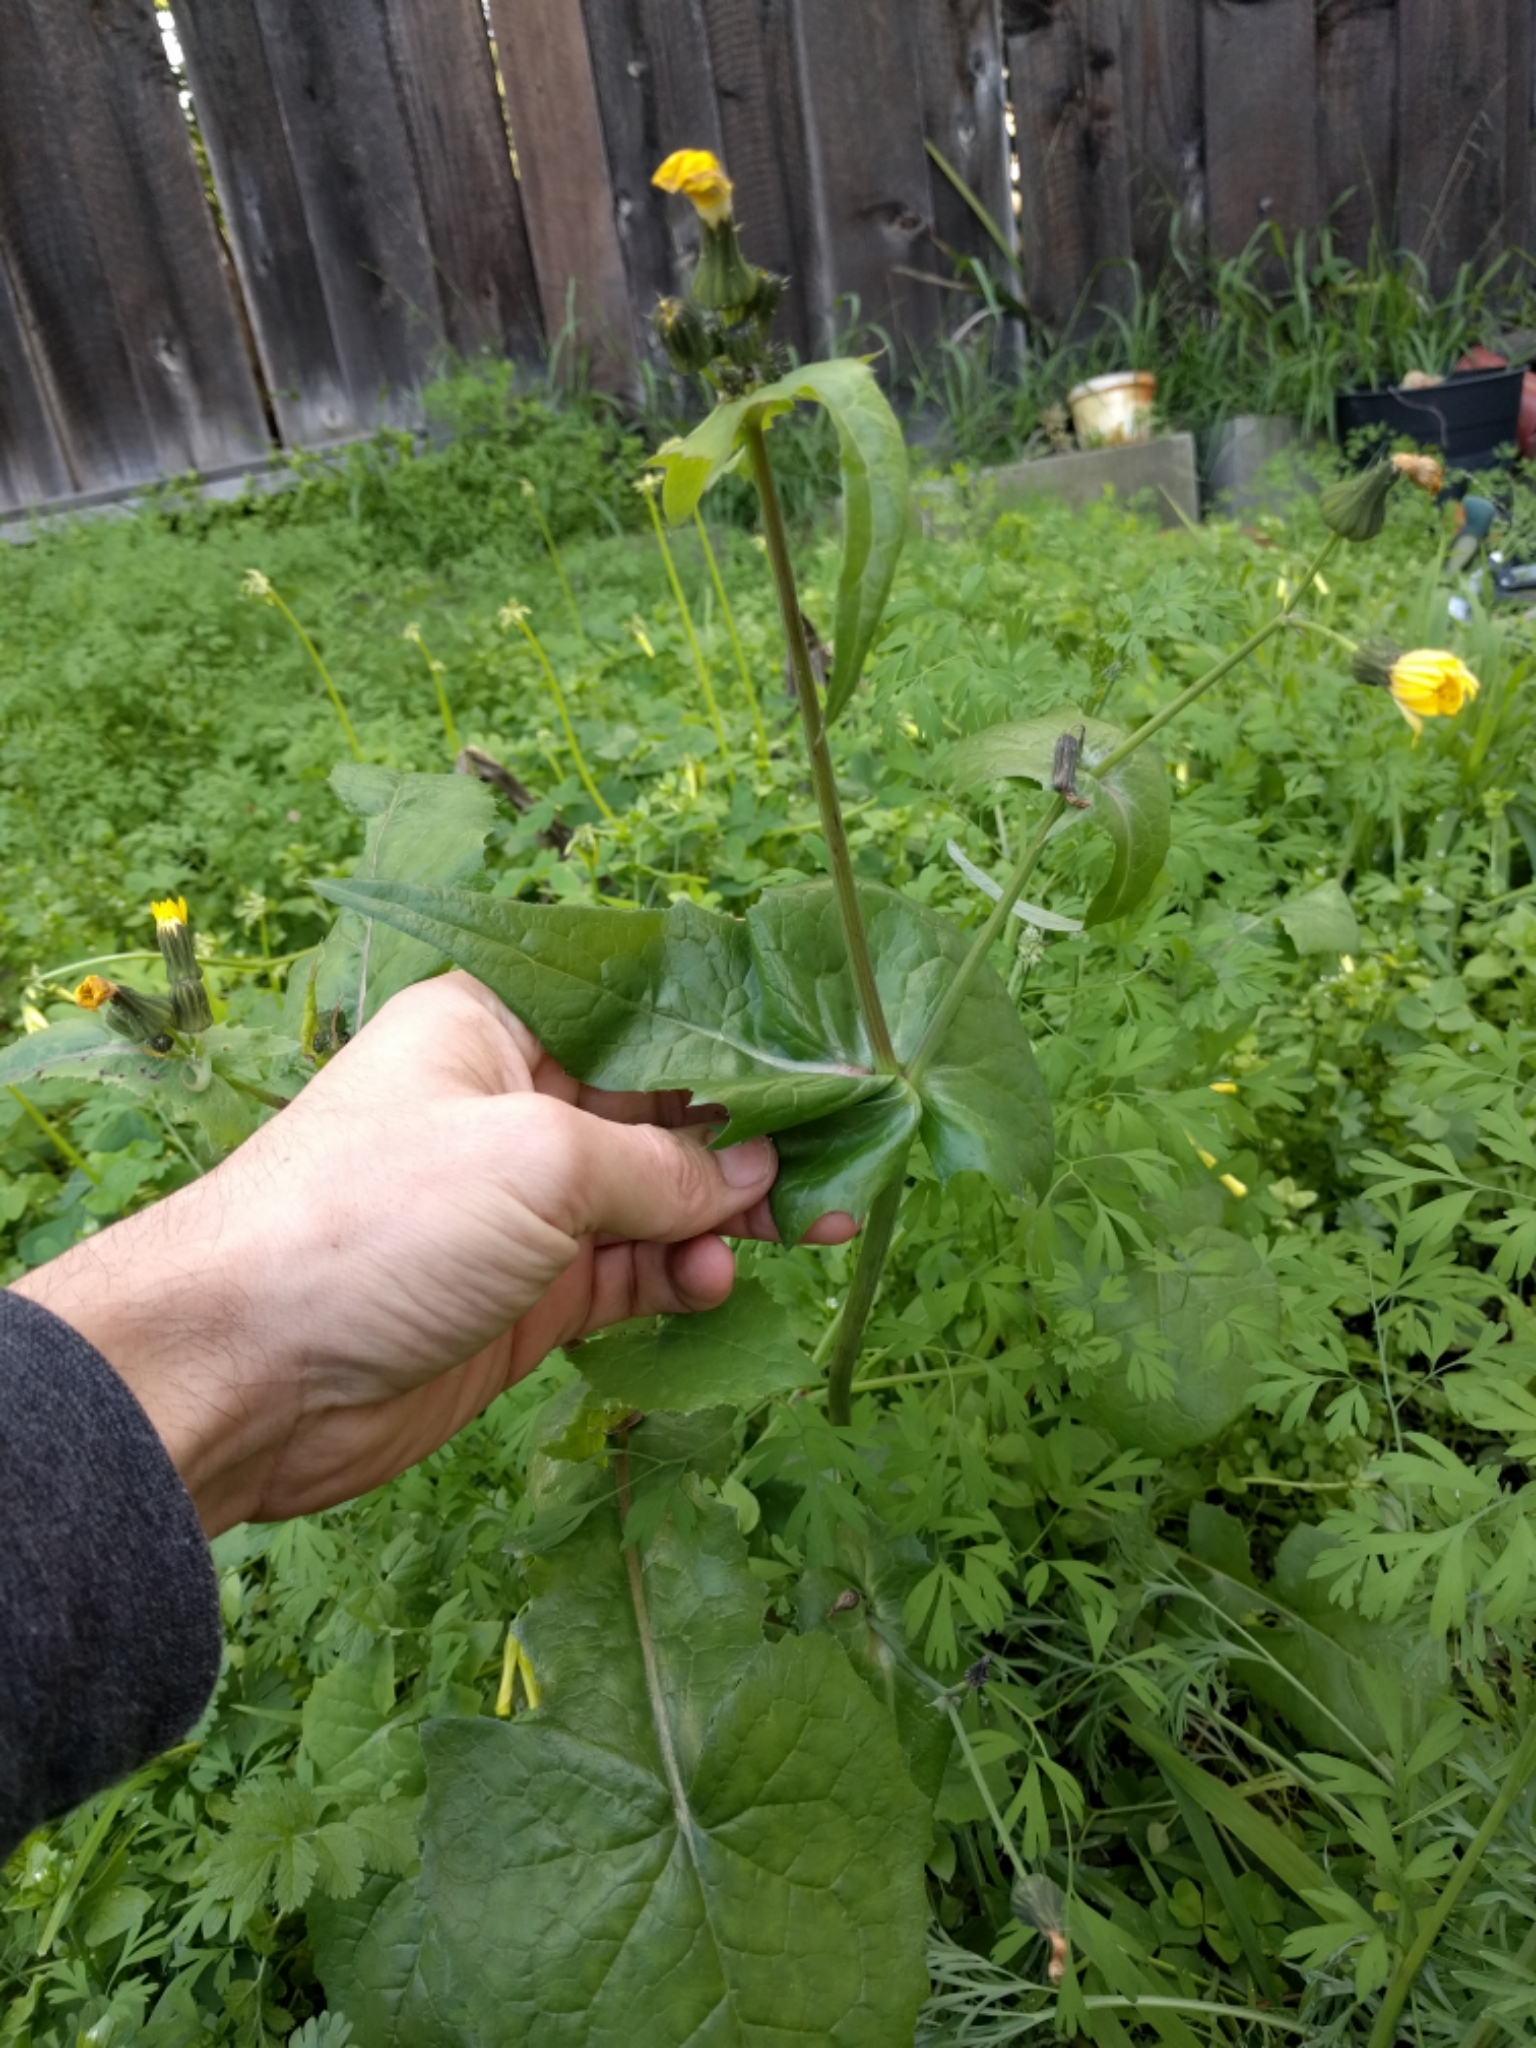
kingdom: Plantae
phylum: Tracheophyta
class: Magnoliopsida
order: Asterales
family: Asteraceae
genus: Sonchus
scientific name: Sonchus oleraceus
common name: Common sowthistle
